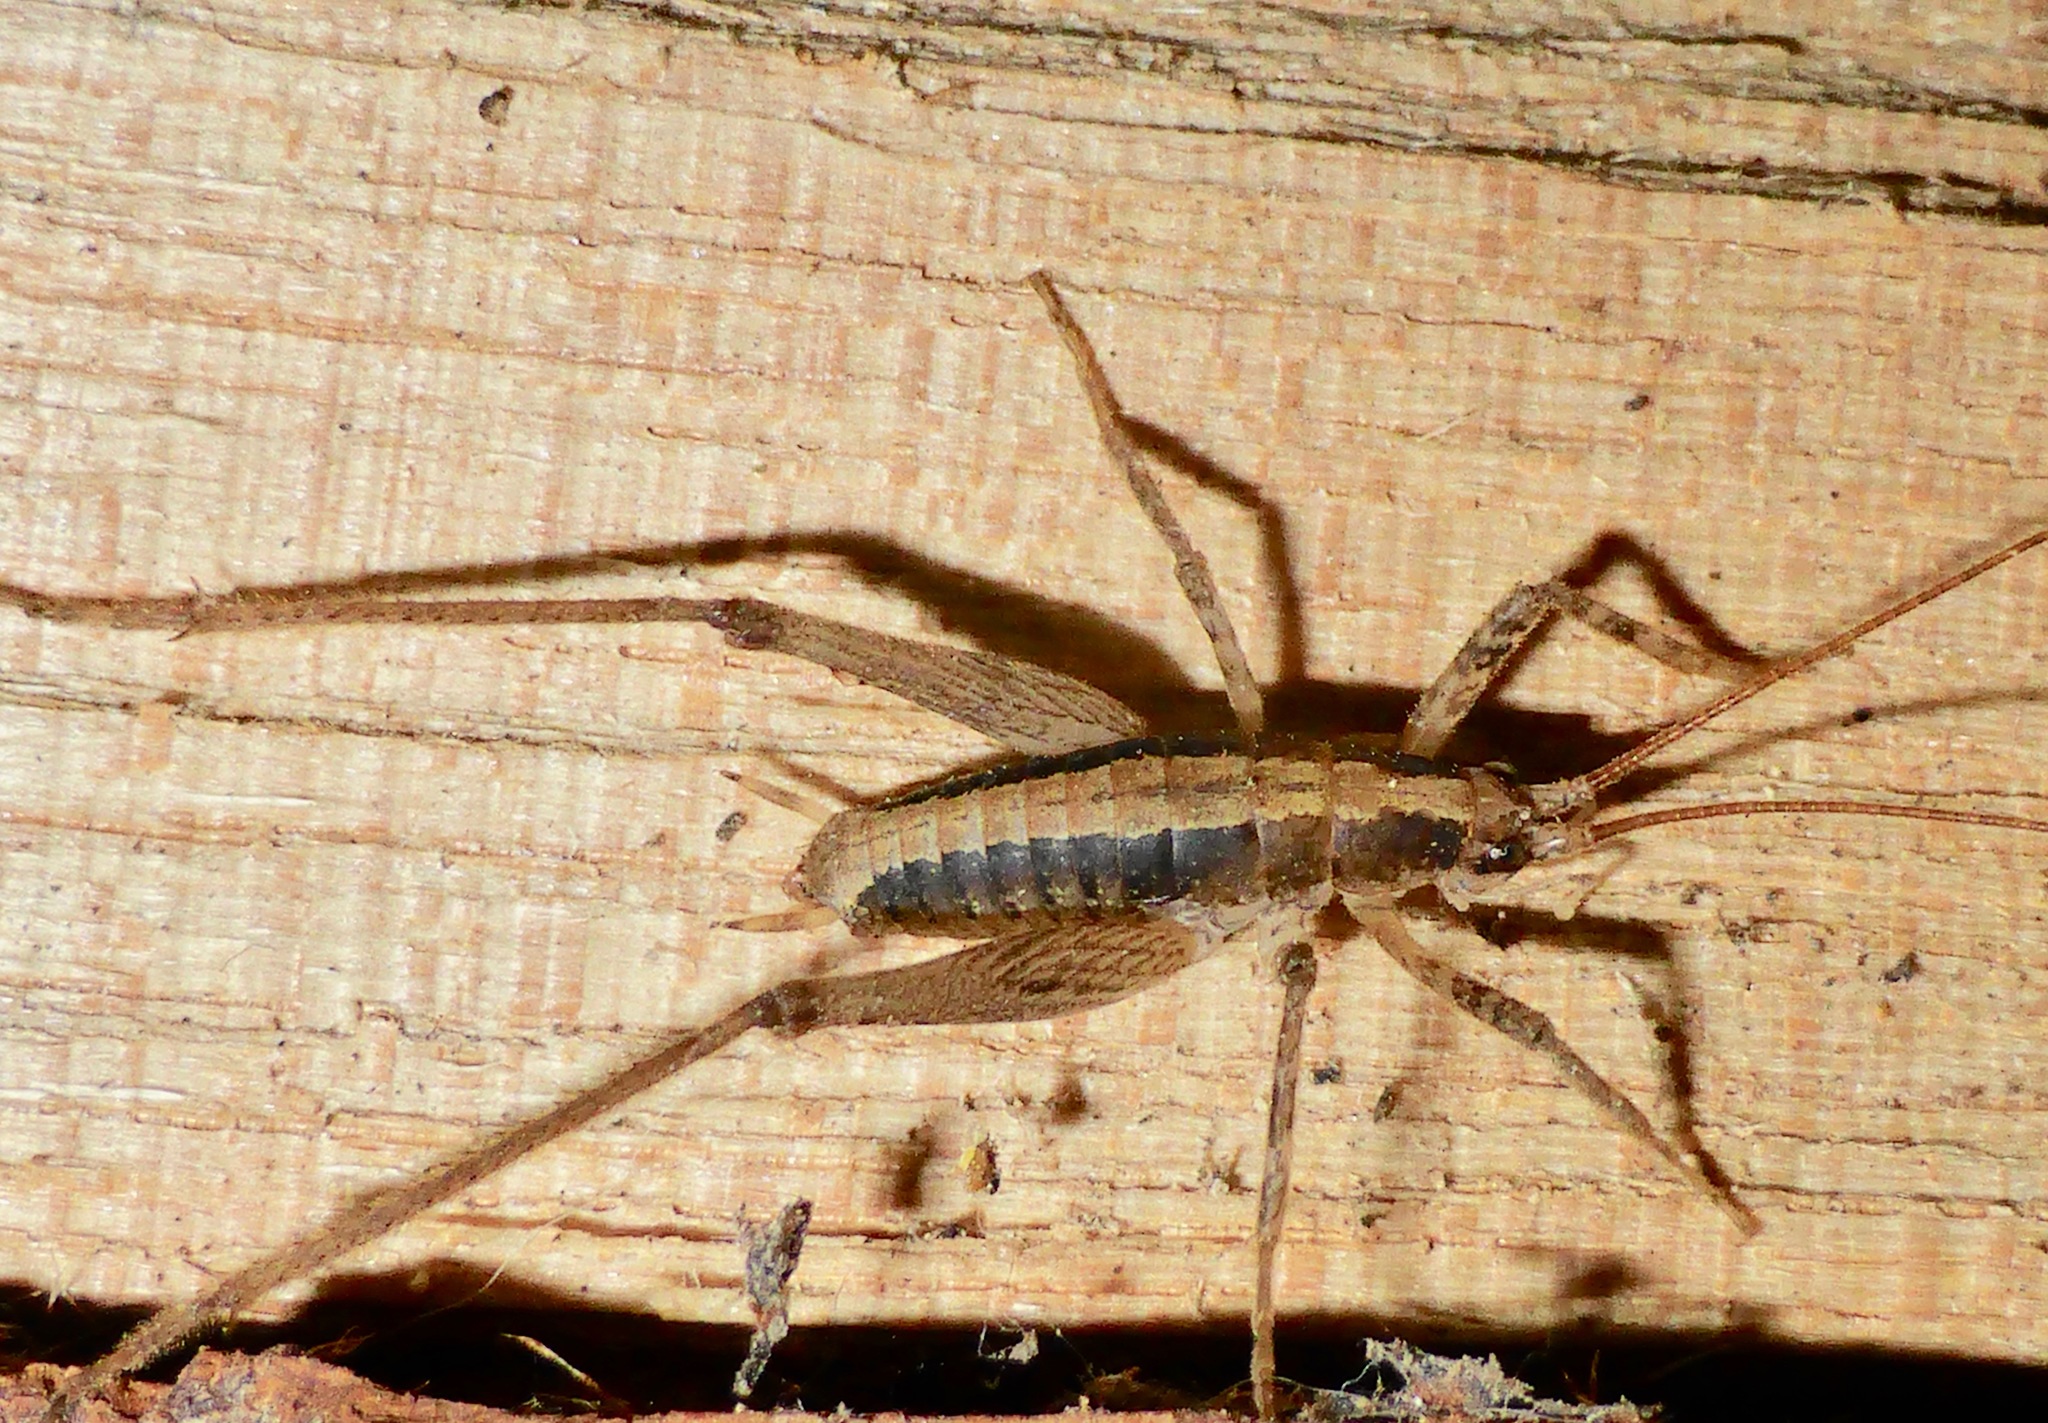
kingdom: Animalia
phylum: Arthropoda
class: Insecta
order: Orthoptera
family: Rhaphidophoridae
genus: Isoplectron
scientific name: Isoplectron armatum
